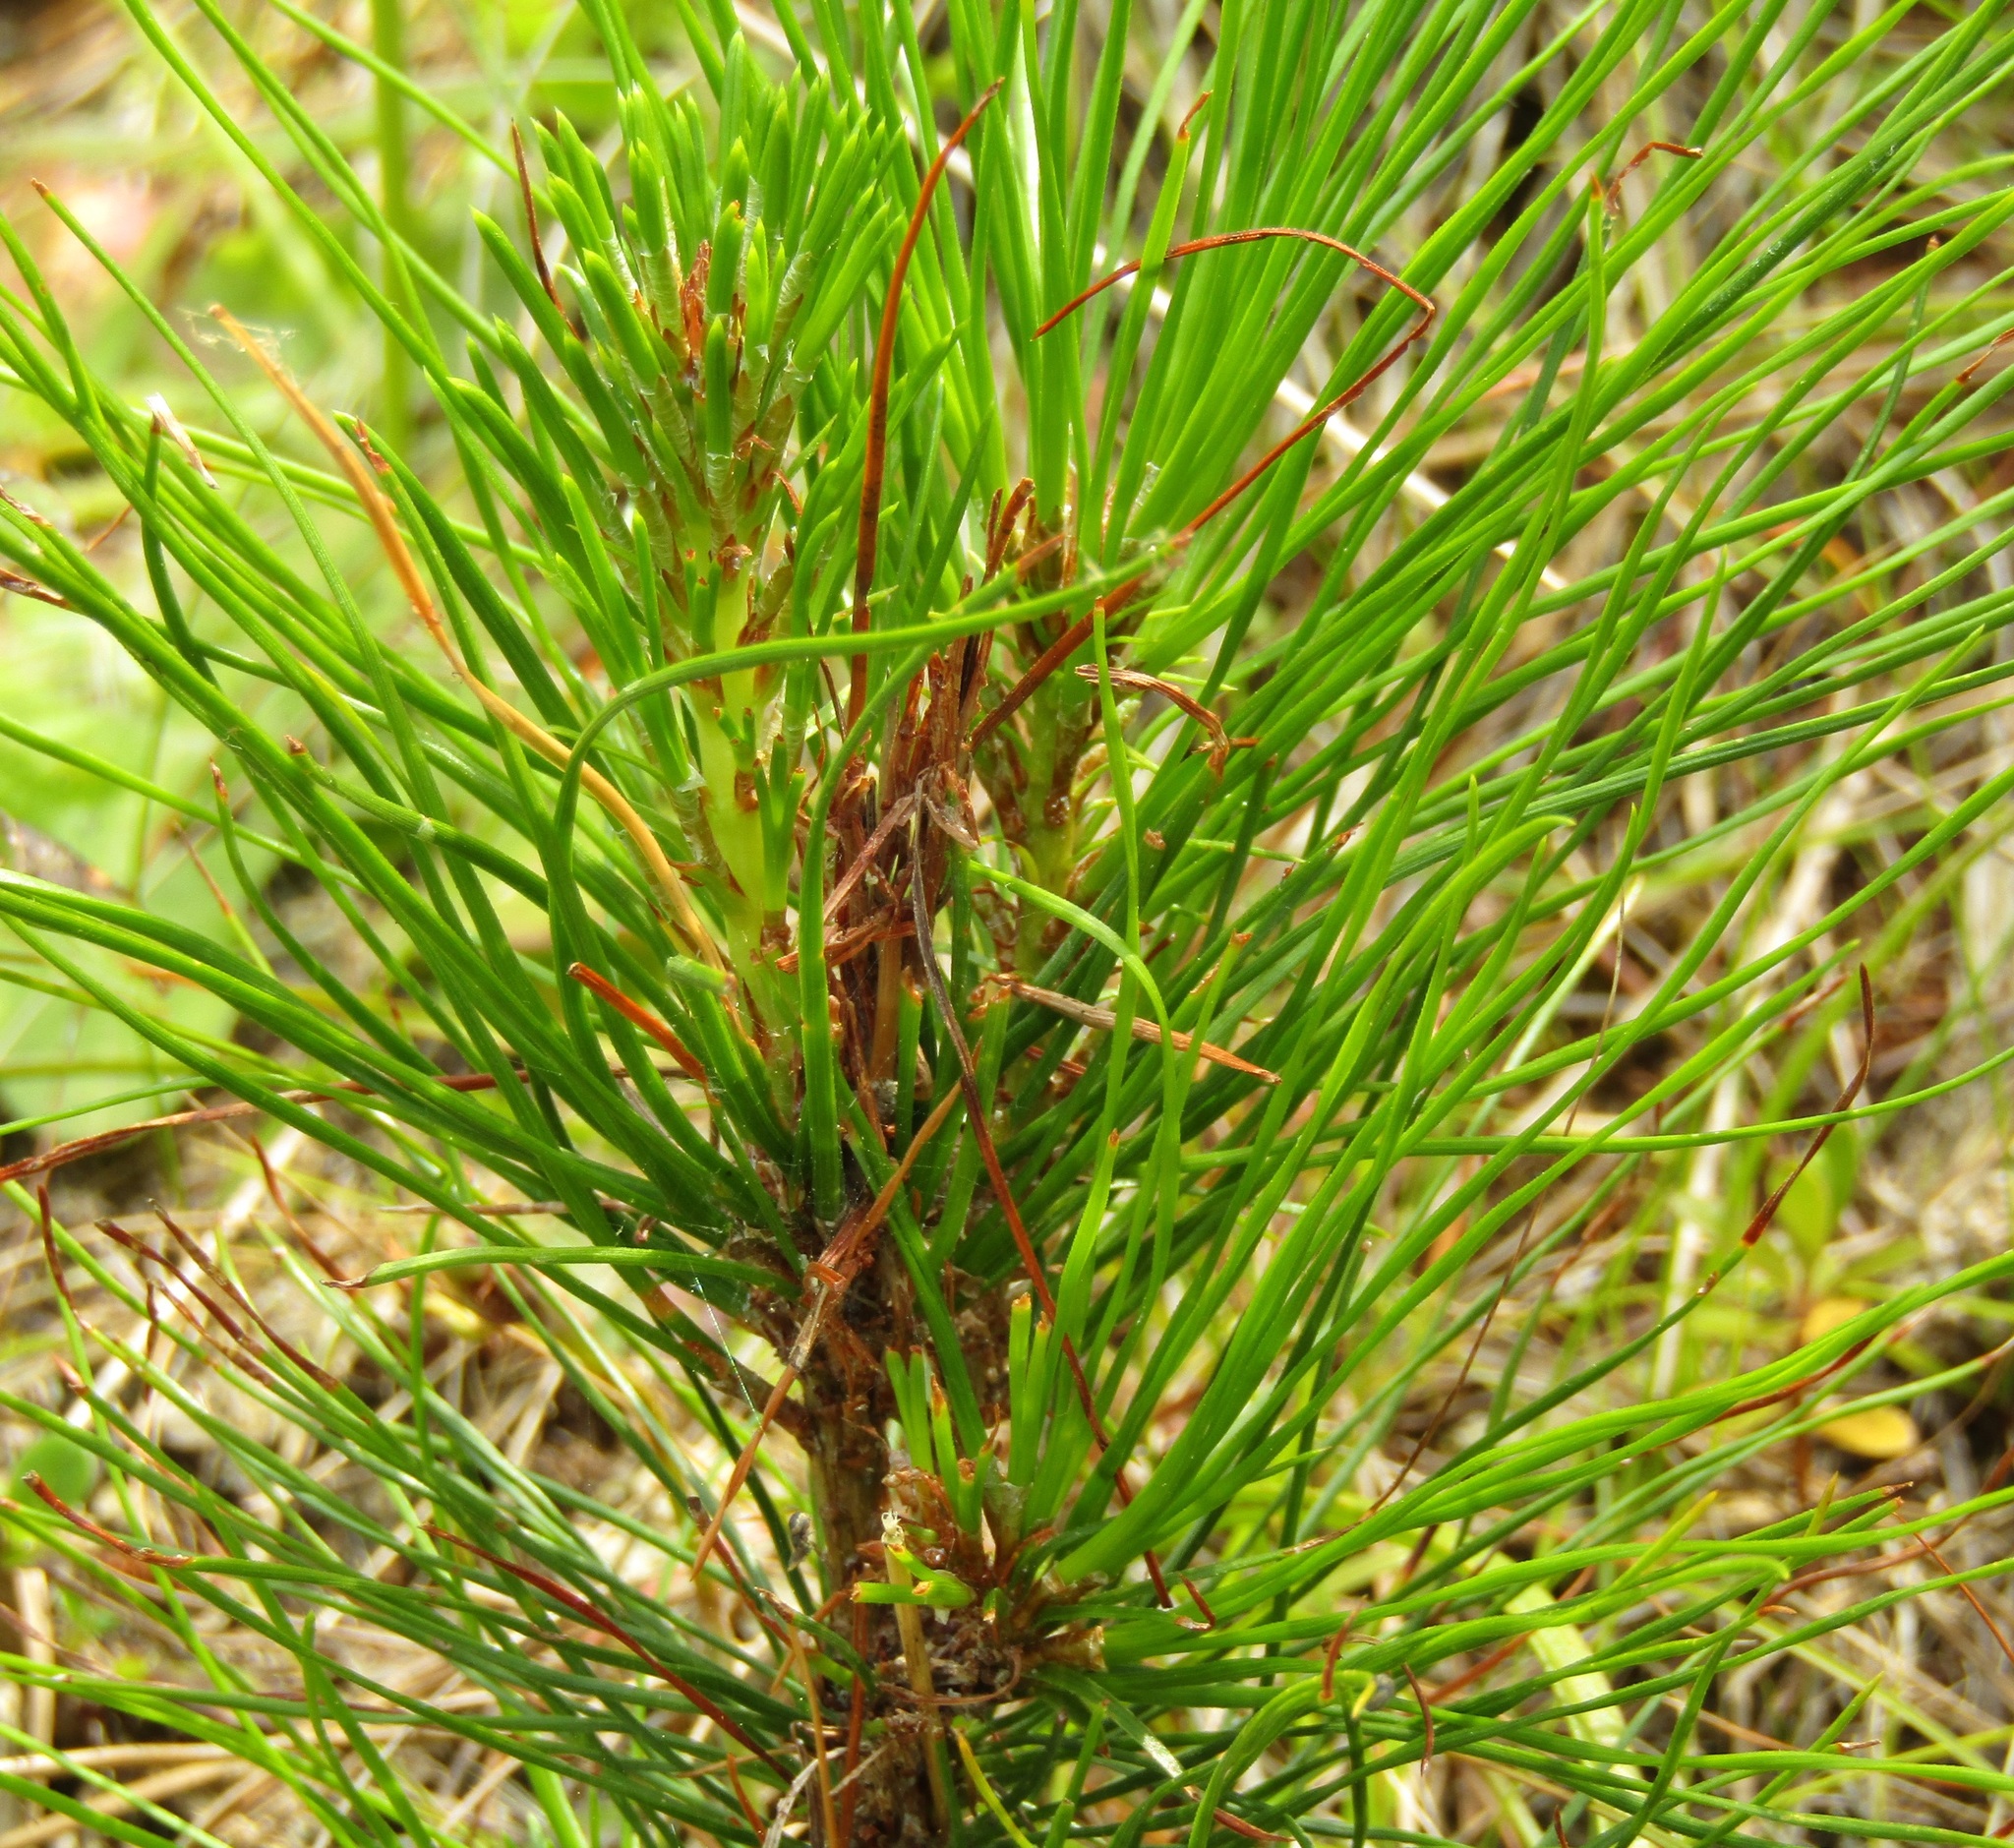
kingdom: Plantae
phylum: Tracheophyta
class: Pinopsida
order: Pinales
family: Pinaceae
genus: Pinus
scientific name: Pinus radiata
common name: Monterey pine
